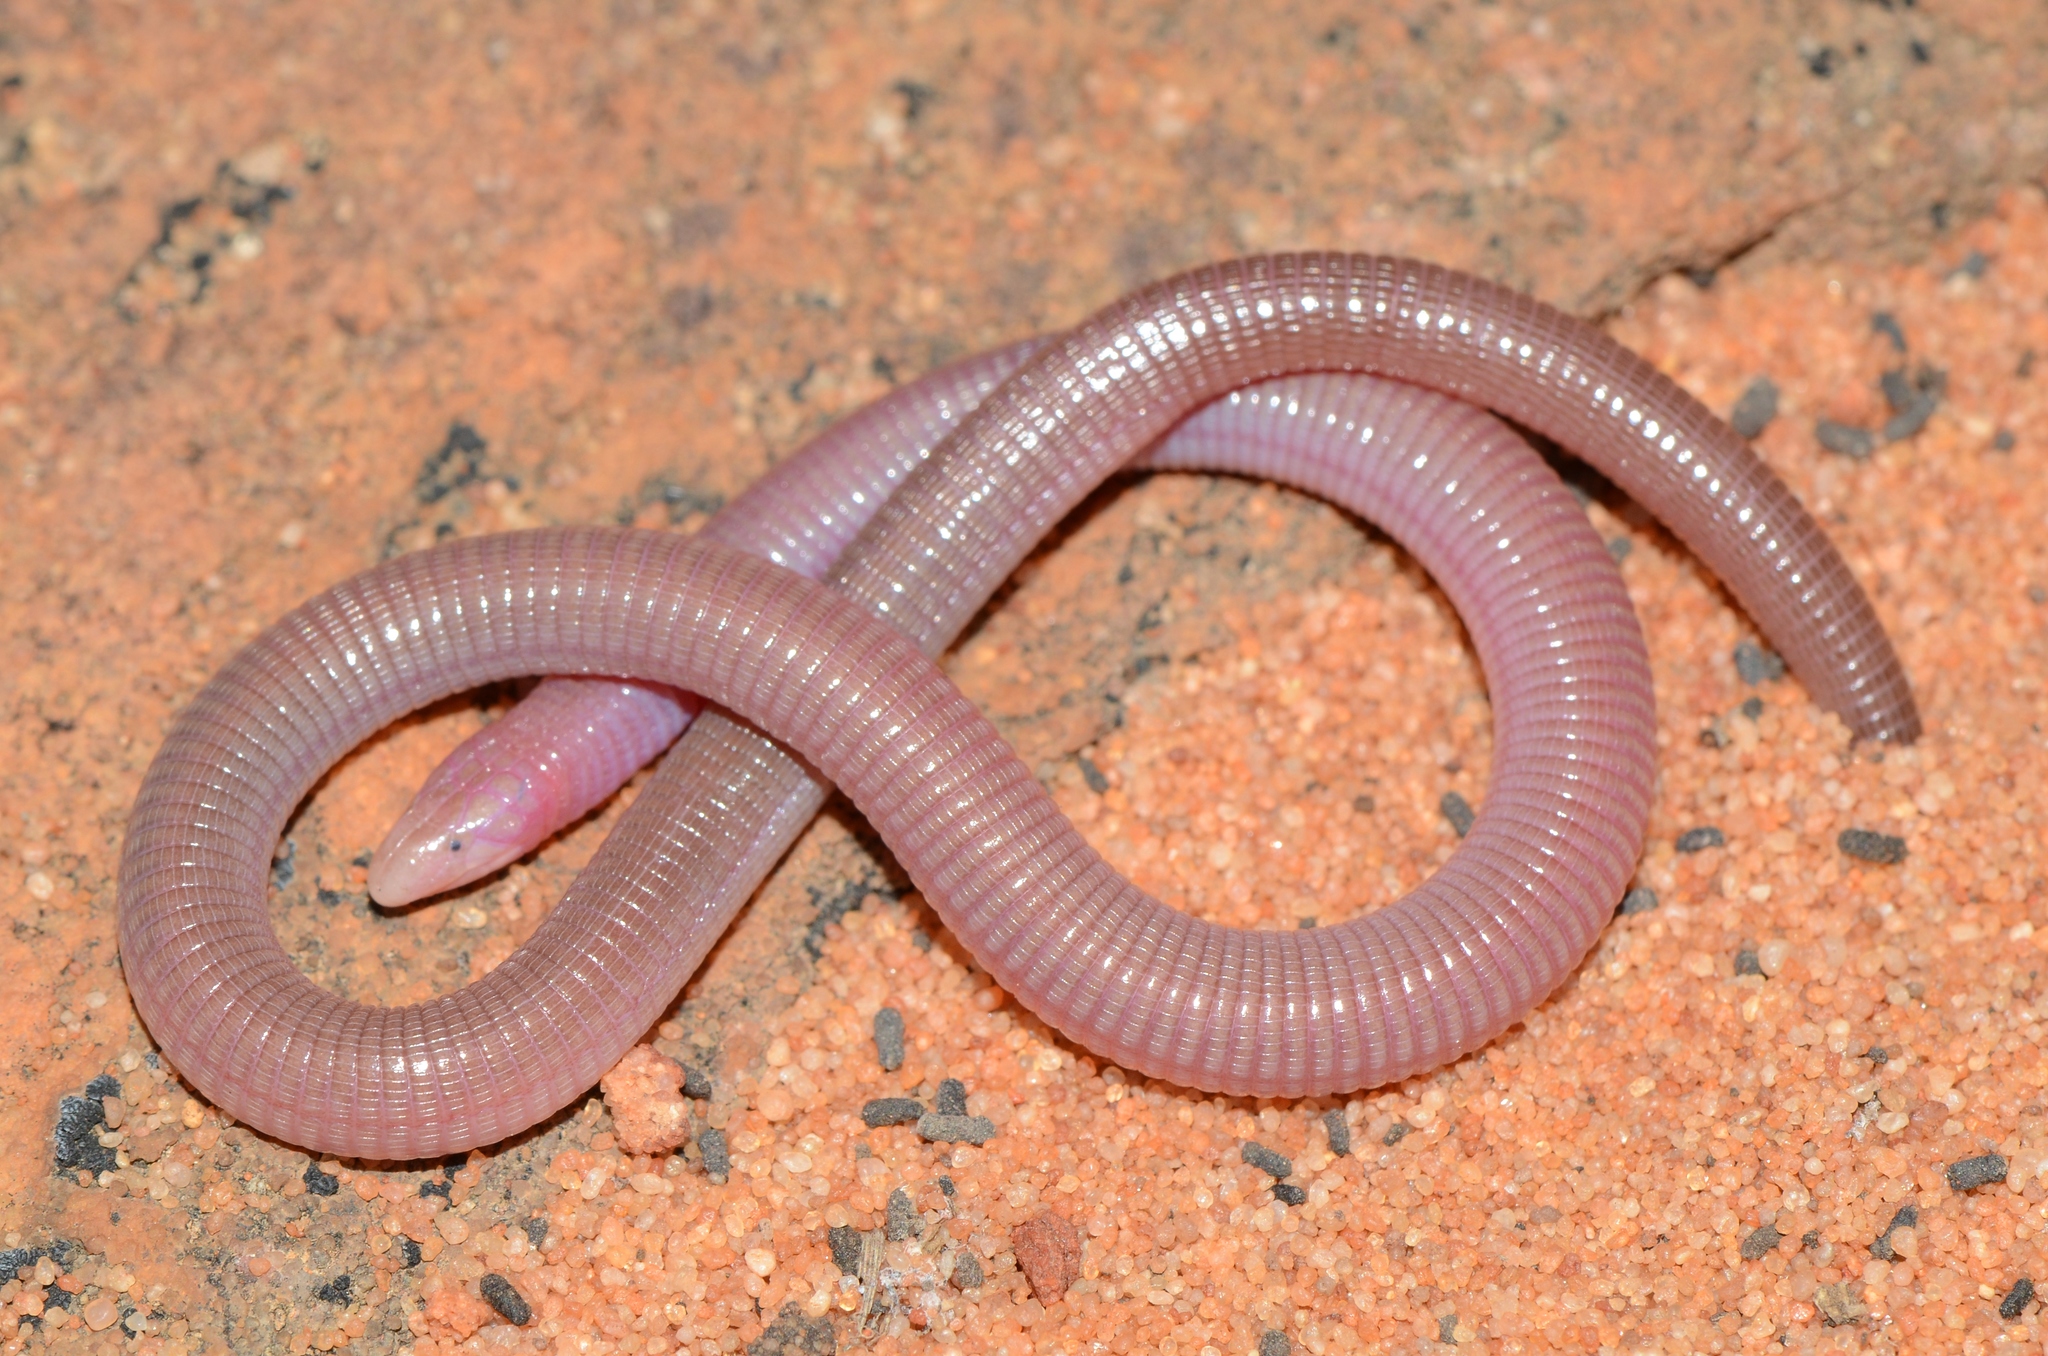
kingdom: Animalia
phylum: Chordata
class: Squamata
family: Amphisbaenidae
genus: Zygaspis
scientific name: Zygaspis quadrifrons
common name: Kalahari dwarf worm lizard
